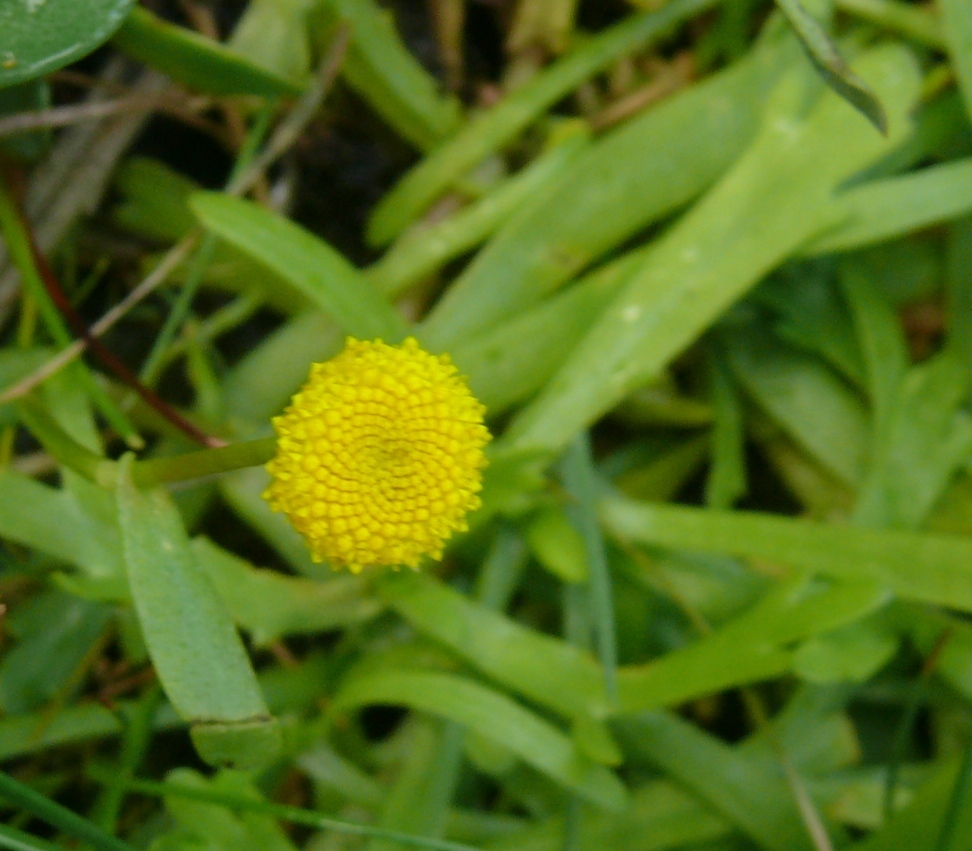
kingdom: Plantae
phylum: Tracheophyta
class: Magnoliopsida
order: Asterales
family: Asteraceae
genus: Cotula
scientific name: Cotula coronopifolia
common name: Buttonweed
